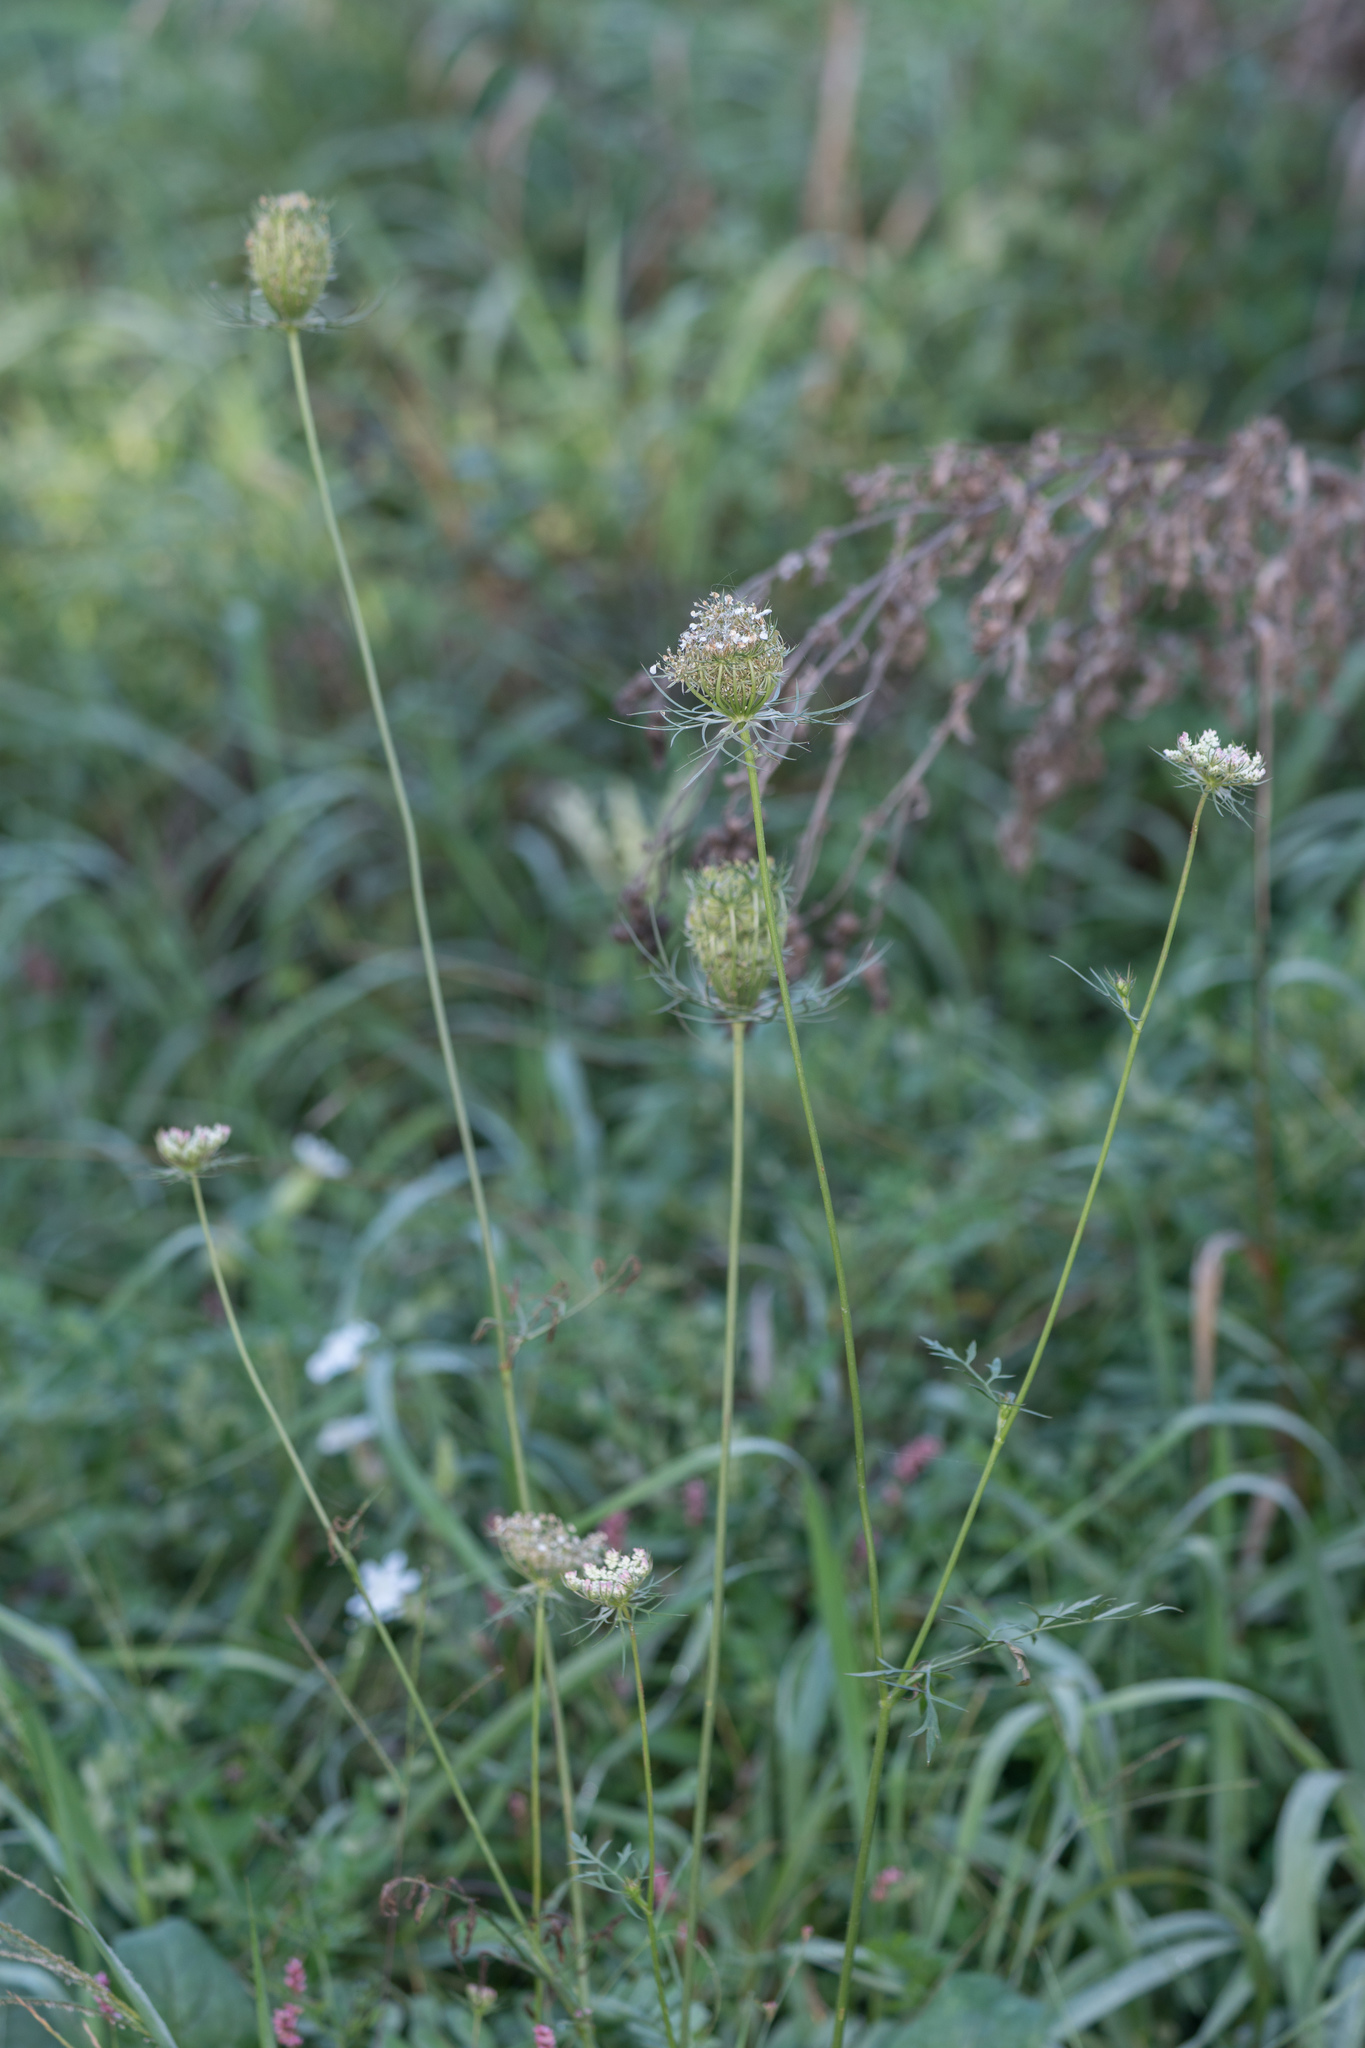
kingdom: Plantae
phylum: Tracheophyta
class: Magnoliopsida
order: Apiales
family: Apiaceae
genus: Daucus
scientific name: Daucus carota
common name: Wild carrot
